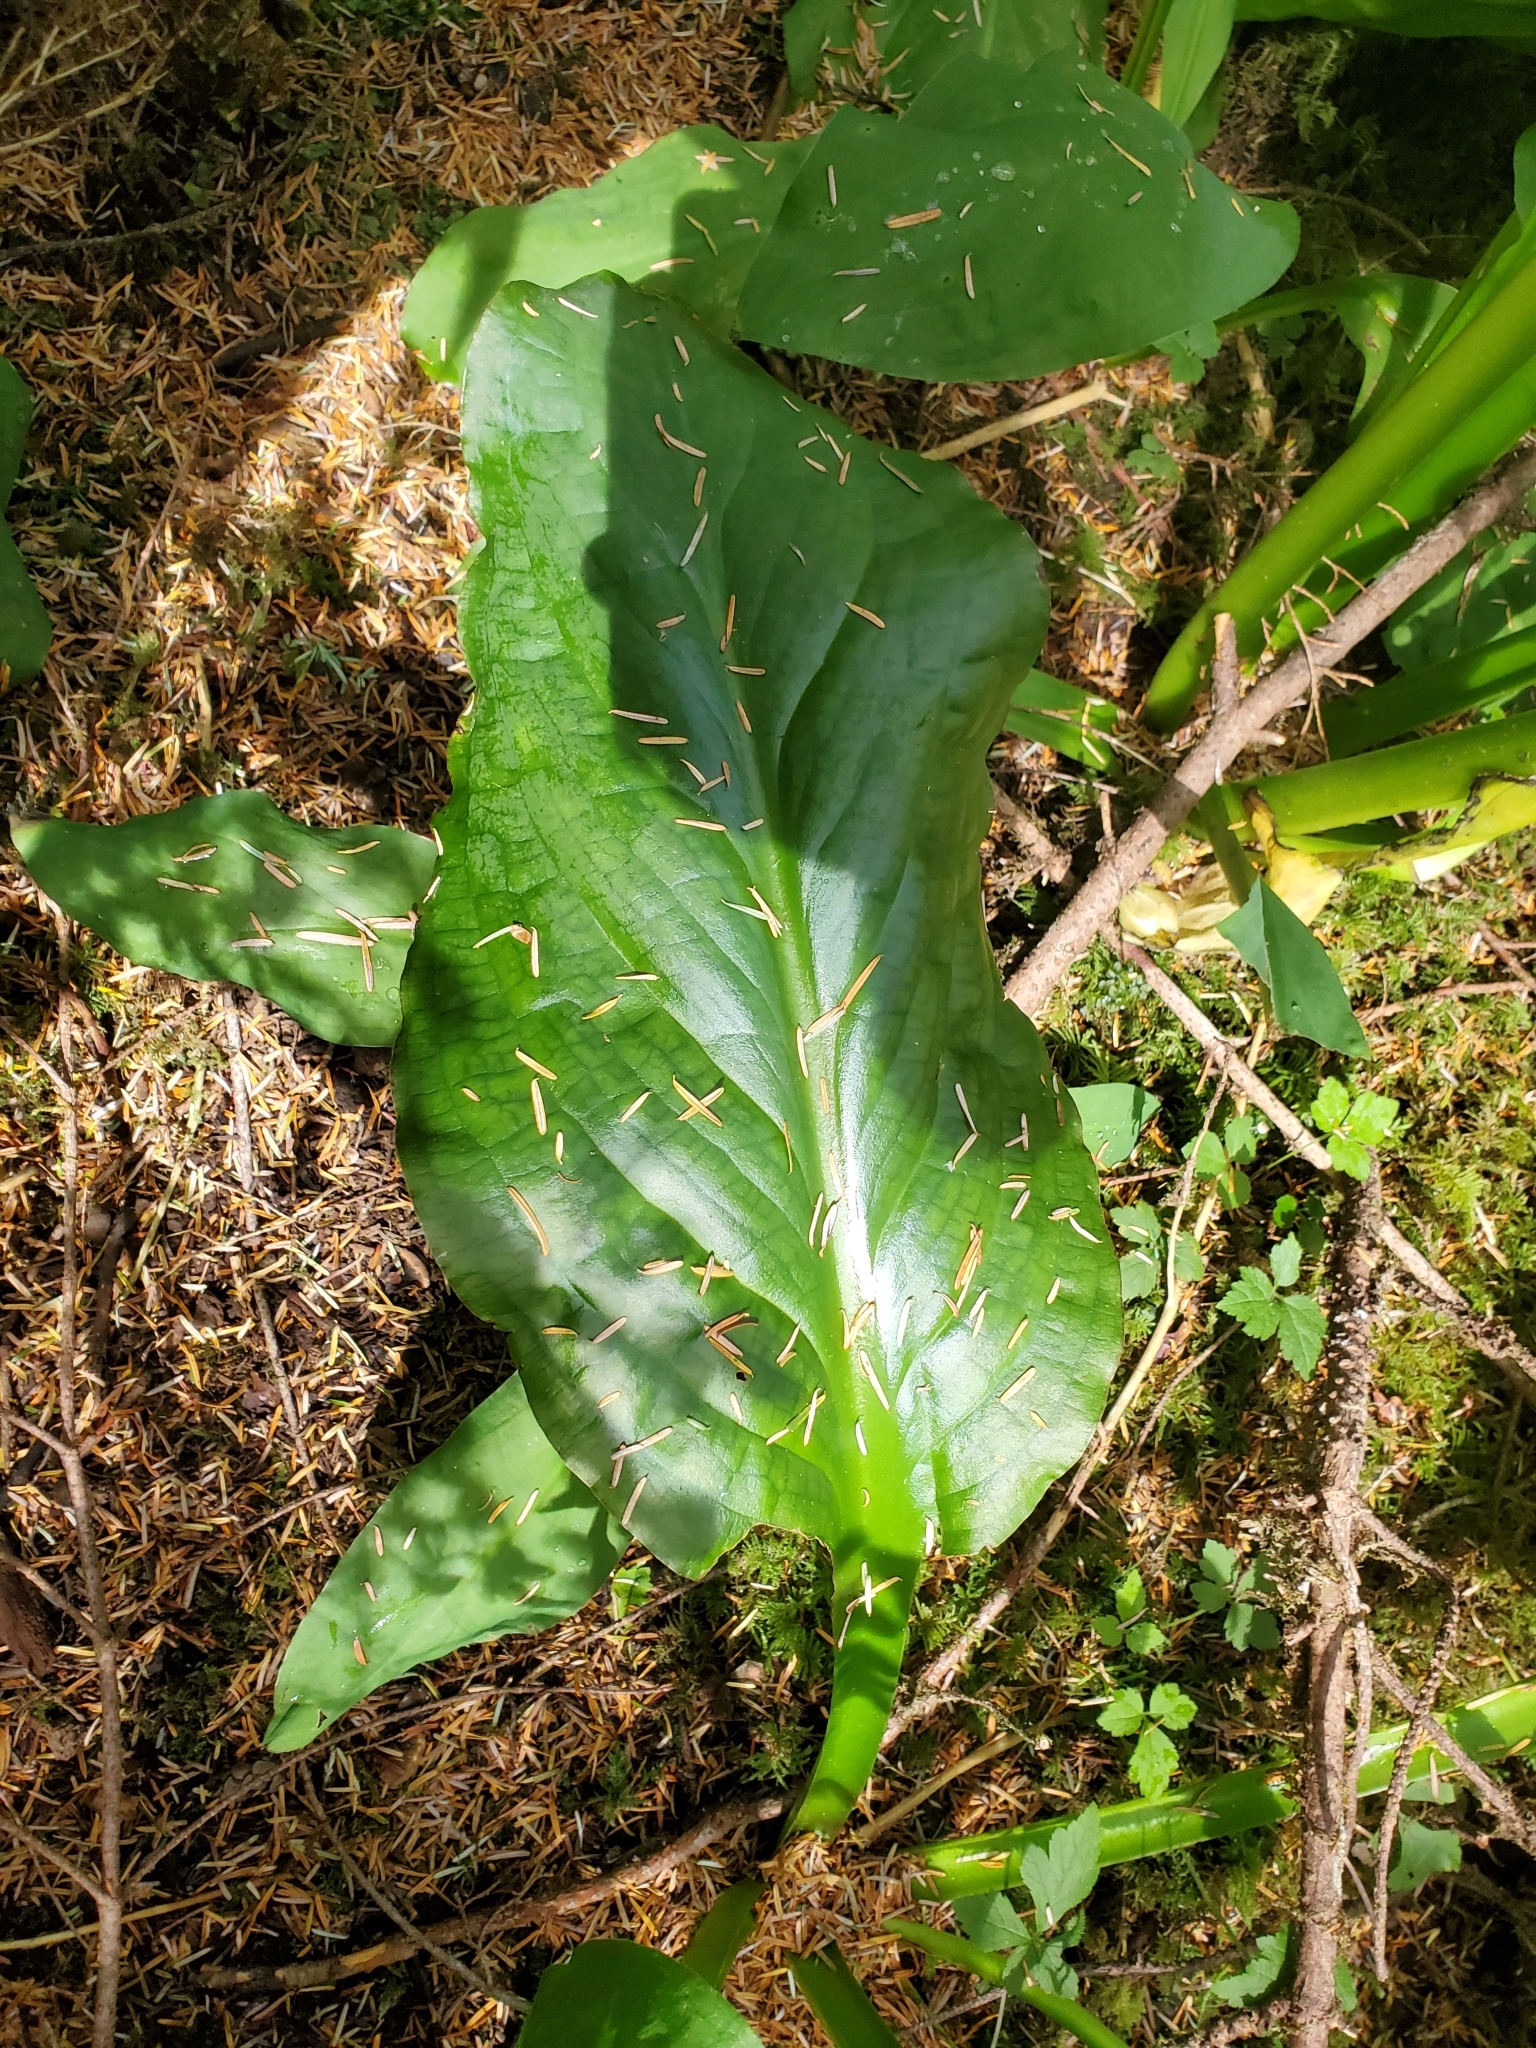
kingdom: Plantae
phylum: Tracheophyta
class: Liliopsida
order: Alismatales
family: Araceae
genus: Lysichiton
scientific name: Lysichiton americanus
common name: American skunk cabbage
